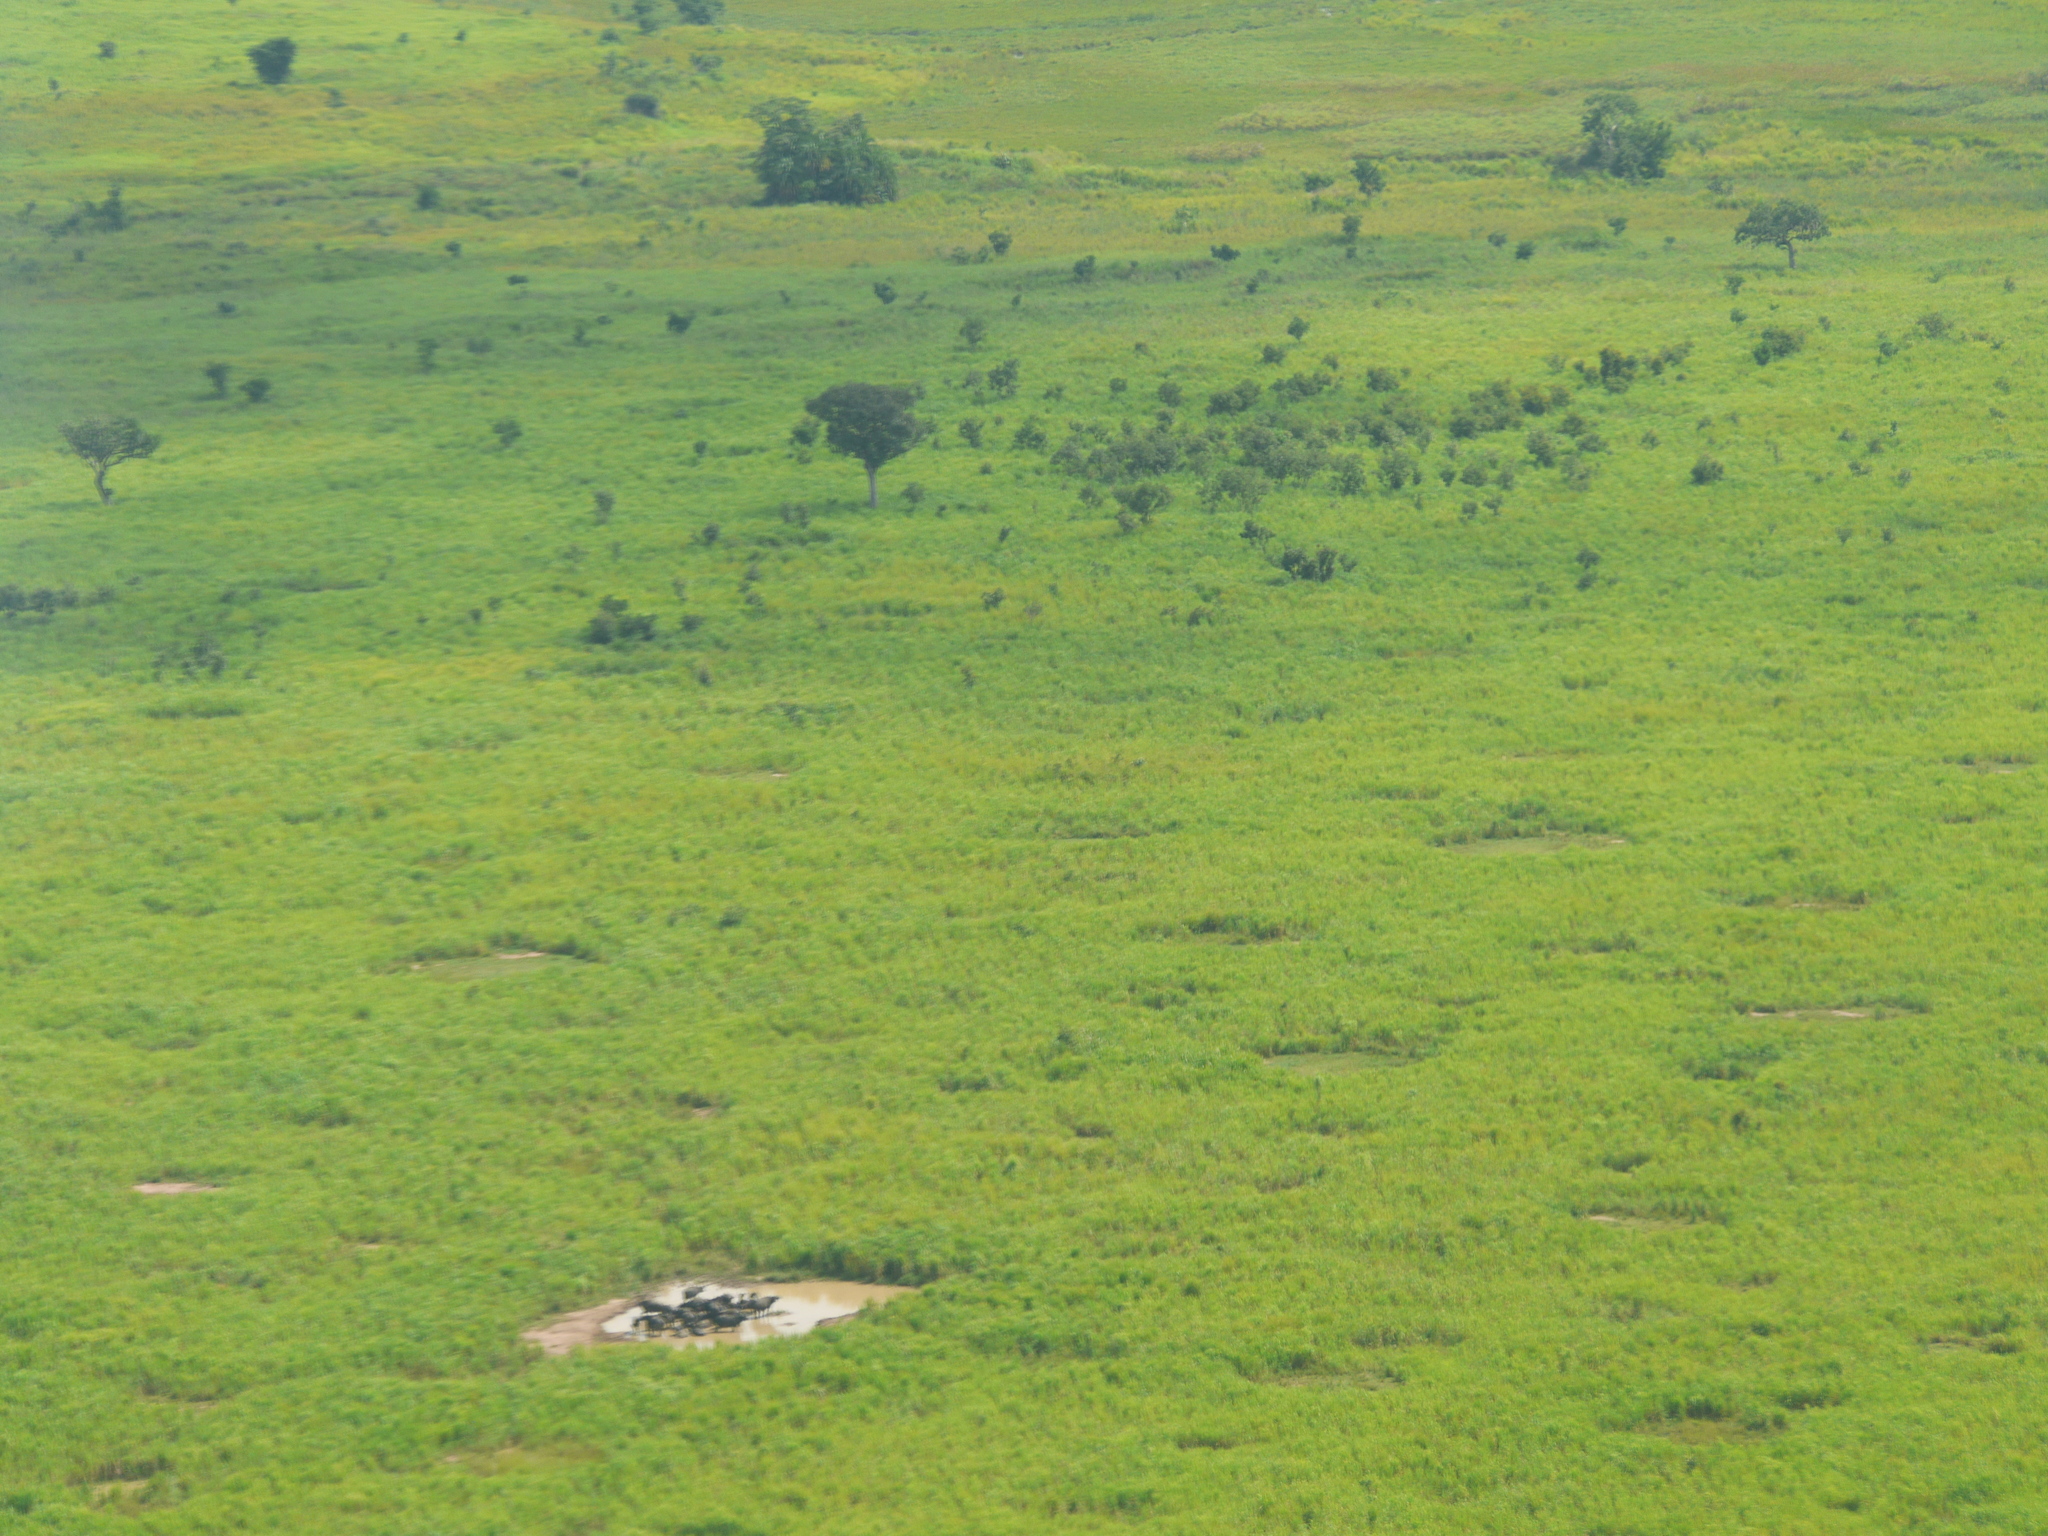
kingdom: Animalia
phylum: Chordata
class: Mammalia
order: Artiodactyla
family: Bovidae
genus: Syncerus
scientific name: Syncerus caffer
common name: African buffalo
